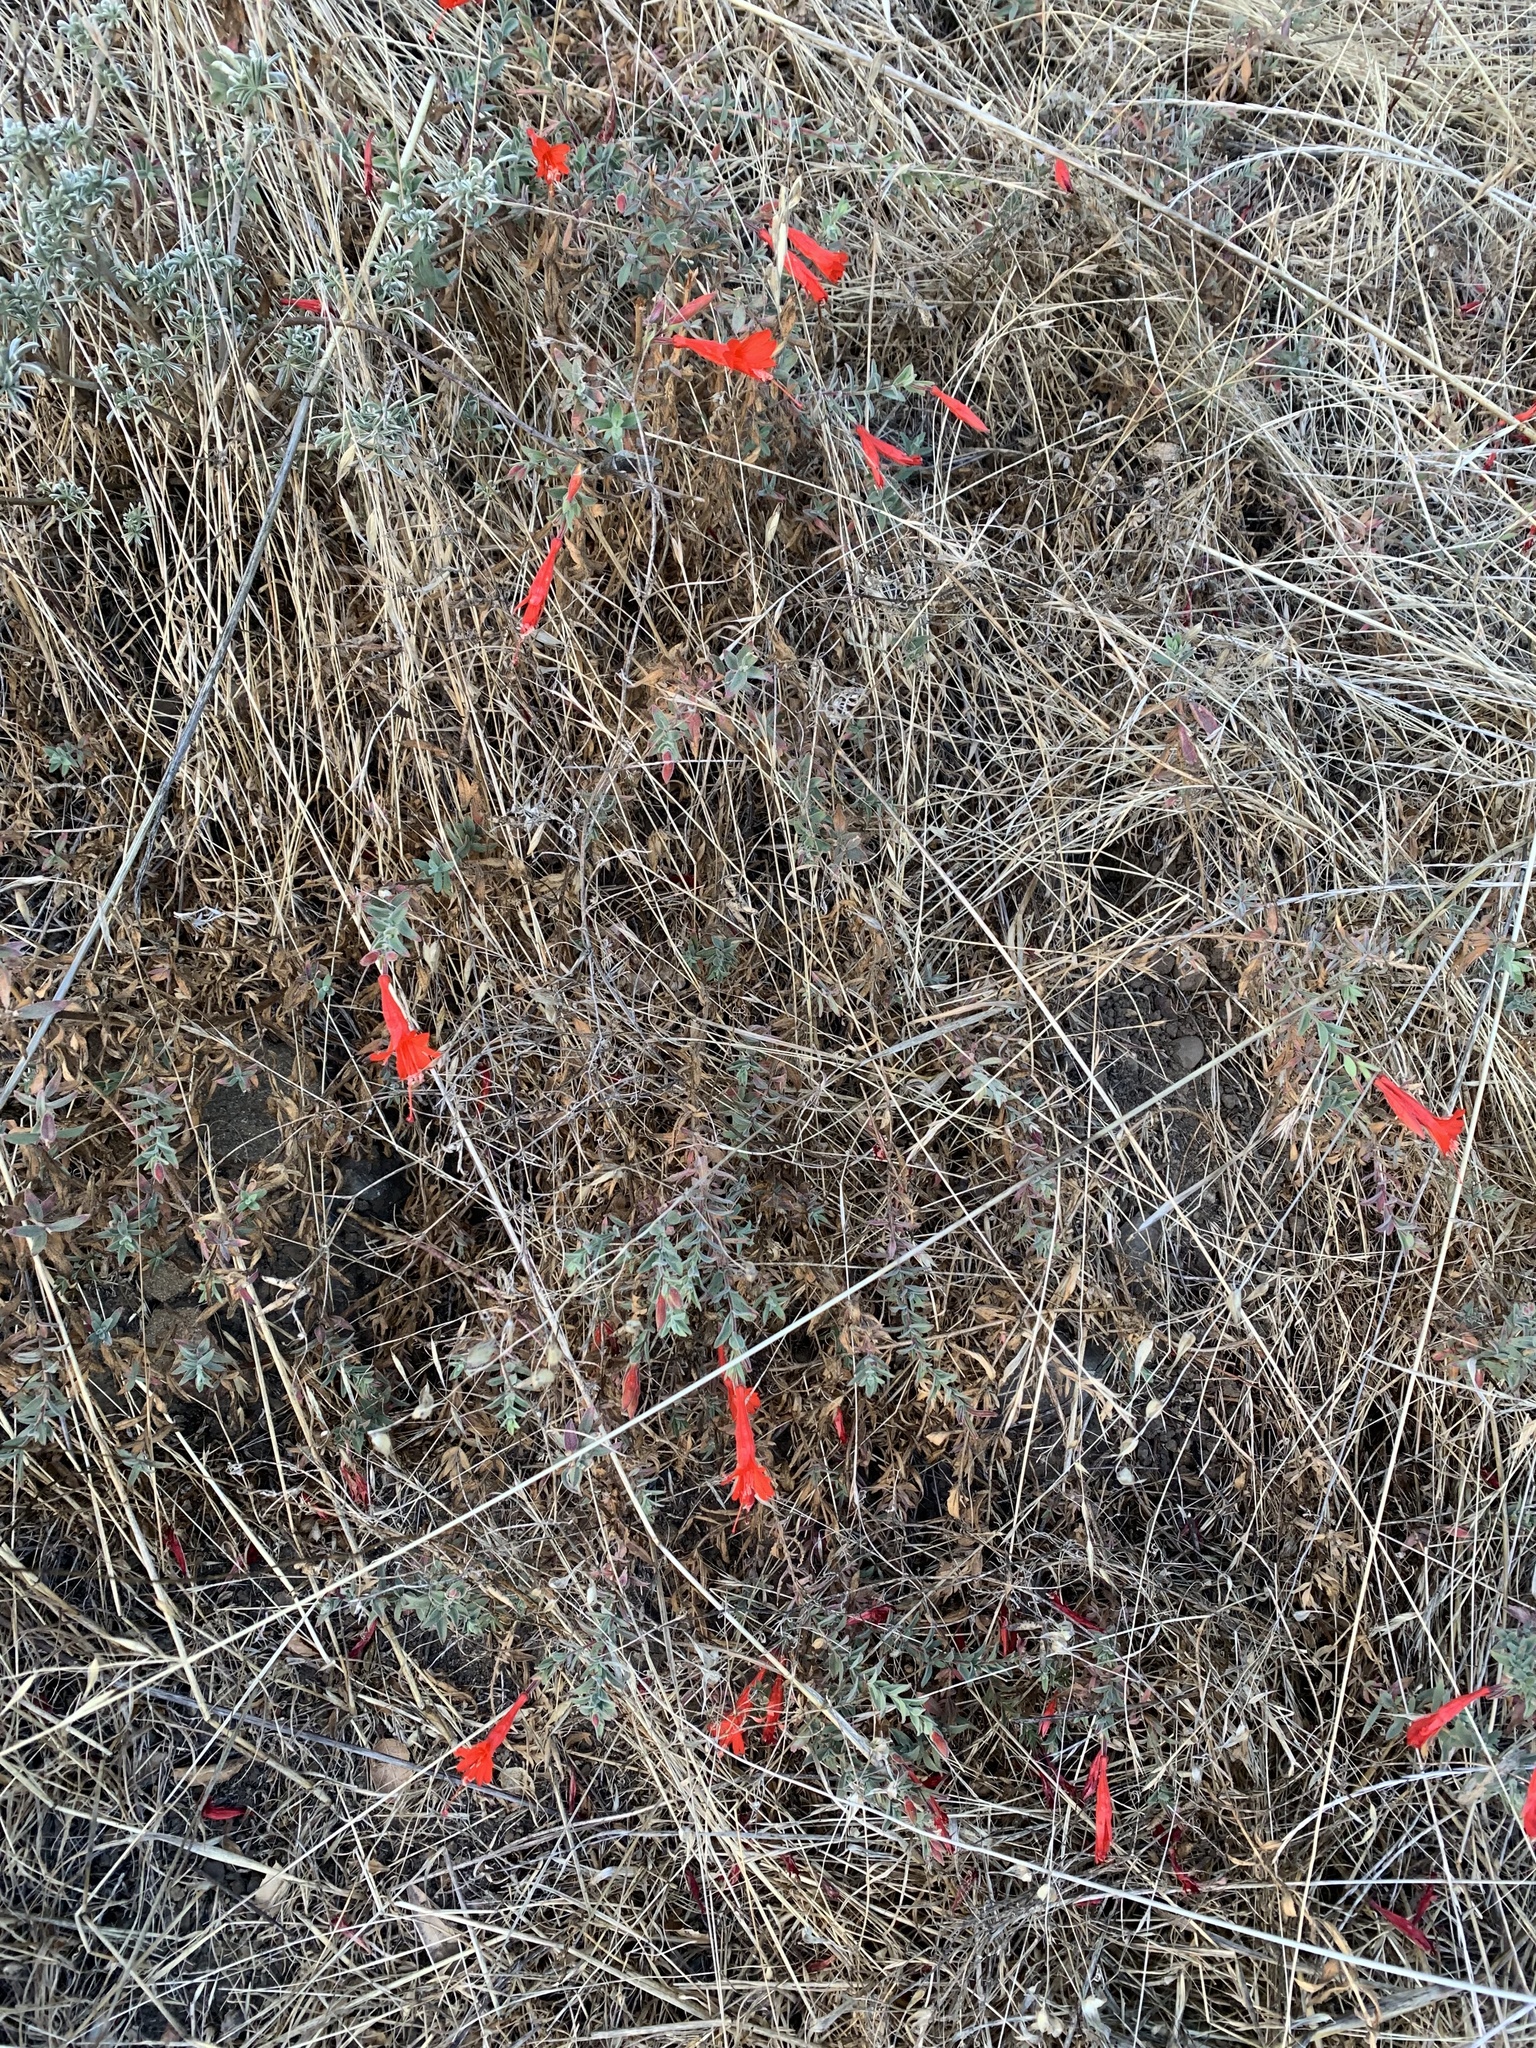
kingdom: Plantae
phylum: Tracheophyta
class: Magnoliopsida
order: Myrtales
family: Onagraceae
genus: Epilobium
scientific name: Epilobium canum
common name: California-fuchsia
